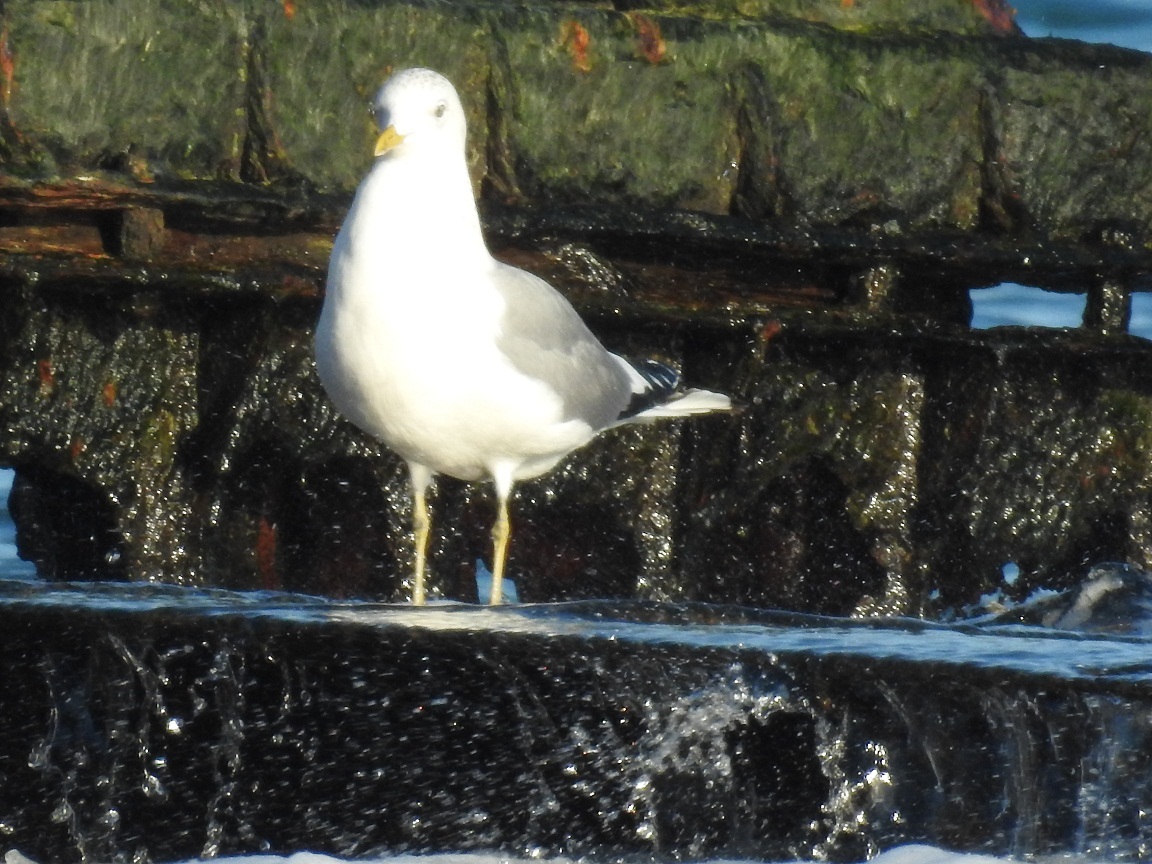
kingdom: Animalia
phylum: Chordata
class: Aves
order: Charadriiformes
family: Laridae
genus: Larus
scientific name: Larus canus
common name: Mew gull
